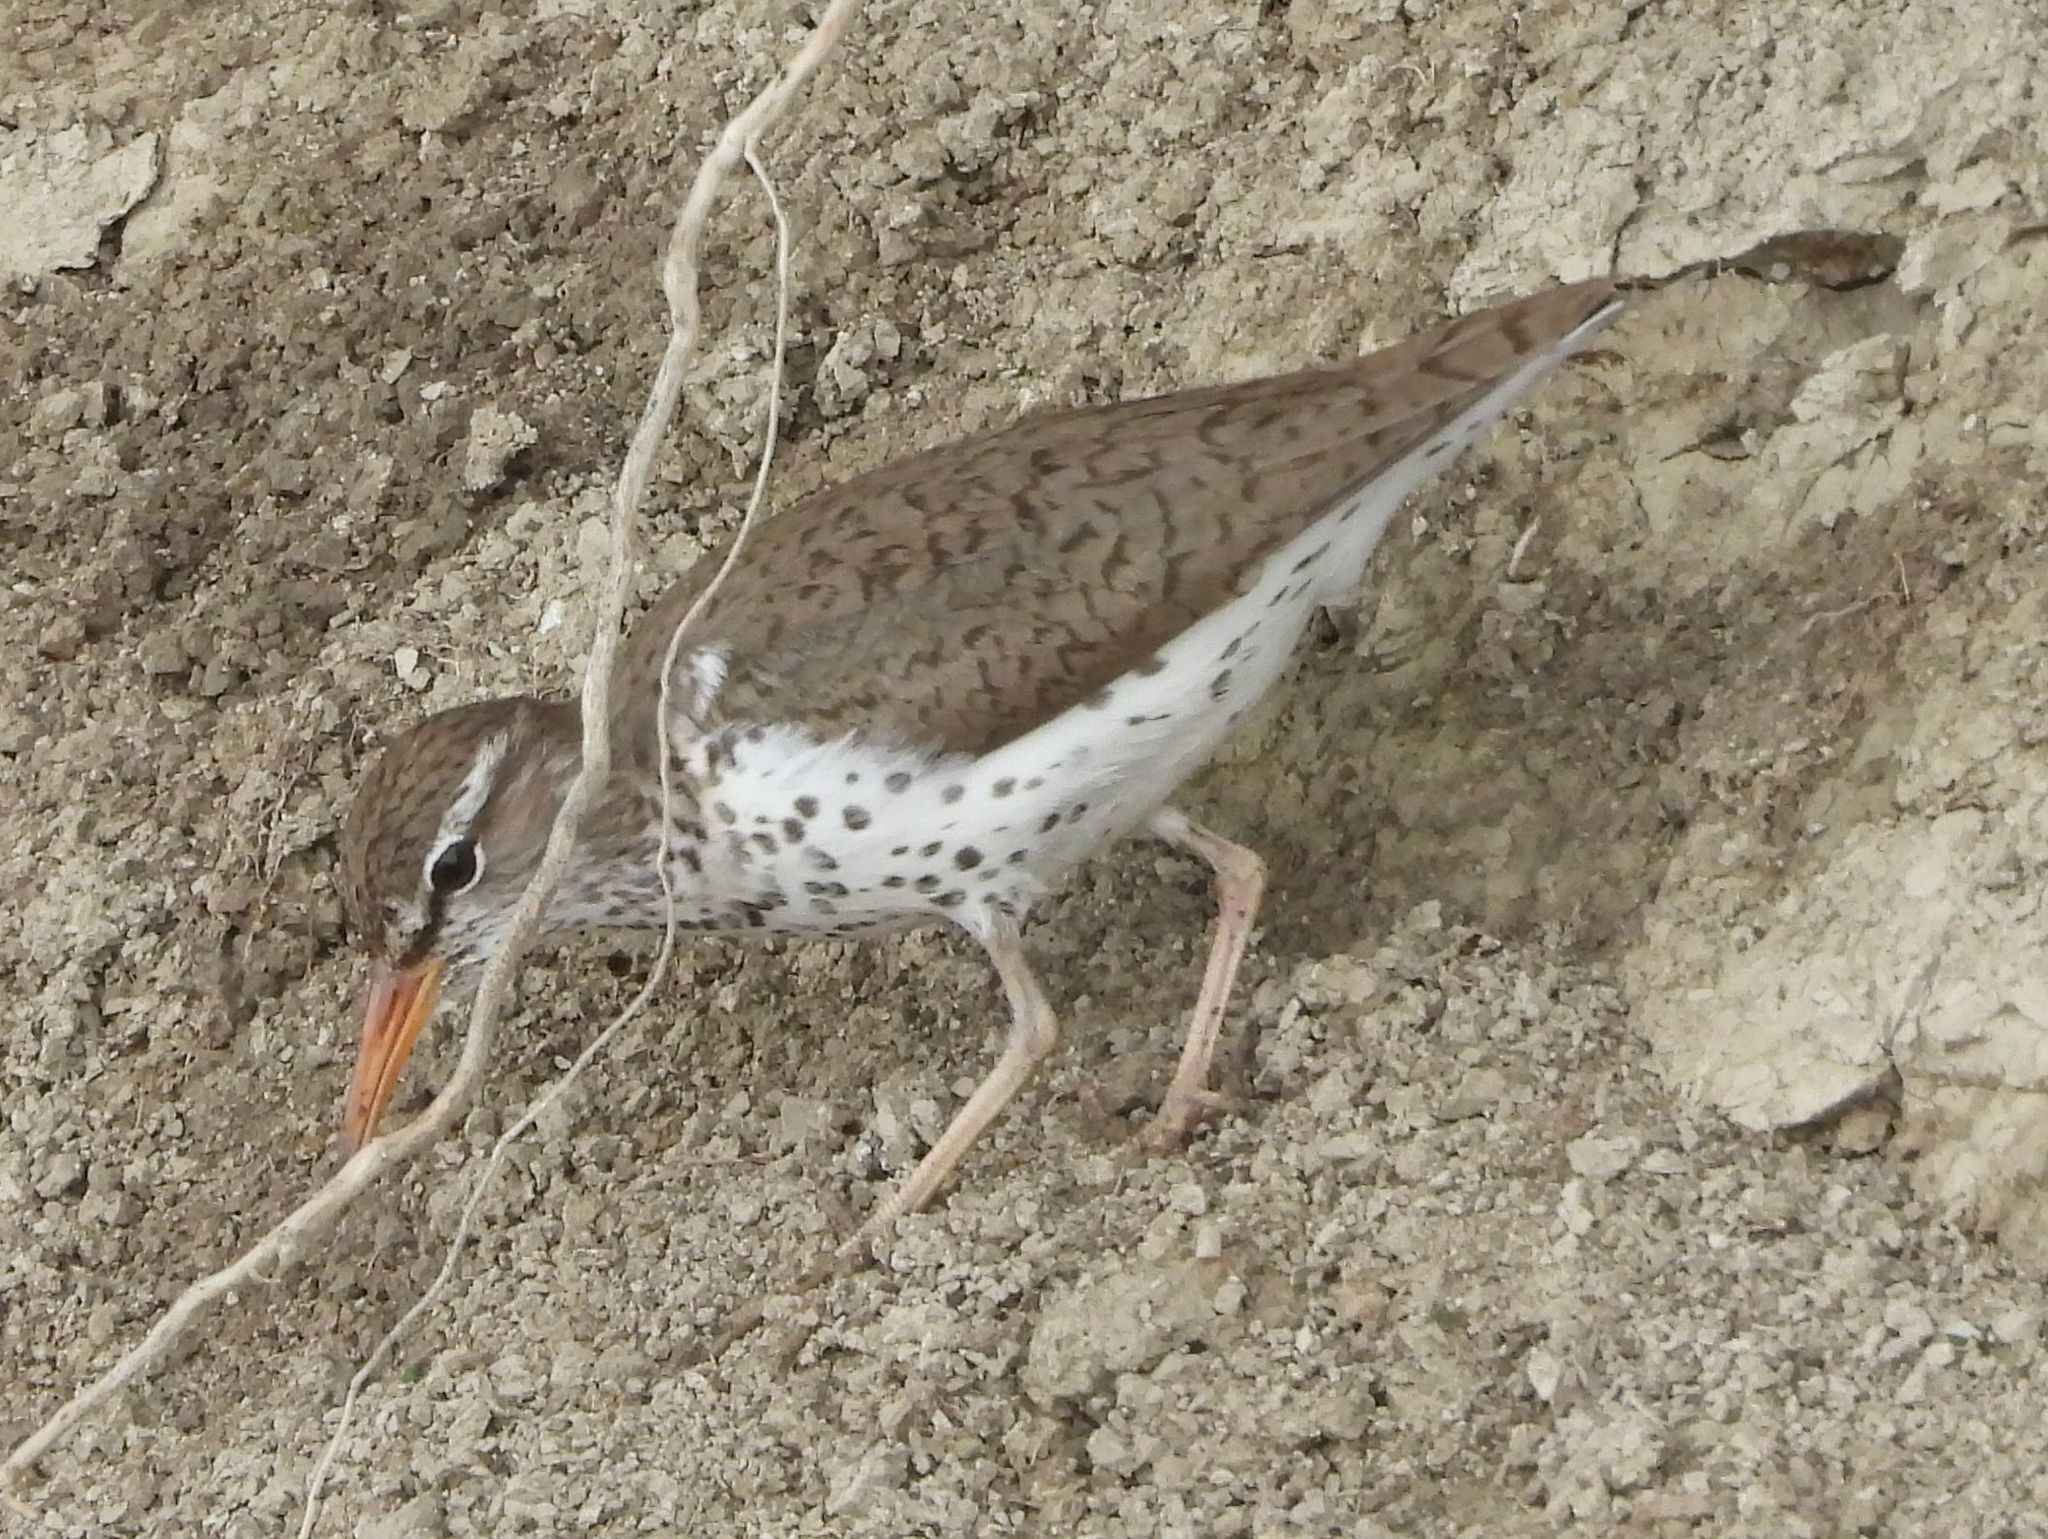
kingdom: Animalia
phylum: Chordata
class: Aves
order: Charadriiformes
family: Scolopacidae
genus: Actitis
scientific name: Actitis macularius
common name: Spotted sandpiper
